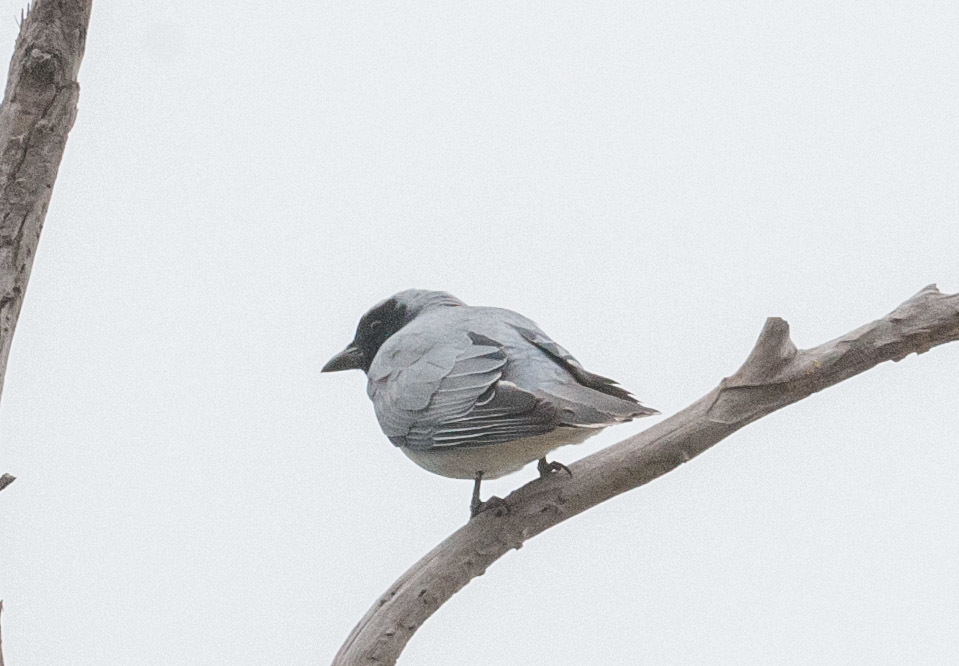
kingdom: Animalia
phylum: Chordata
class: Aves
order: Passeriformes
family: Campephagidae
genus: Coracina
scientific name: Coracina novaehollandiae
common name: Black-faced cuckooshrike
